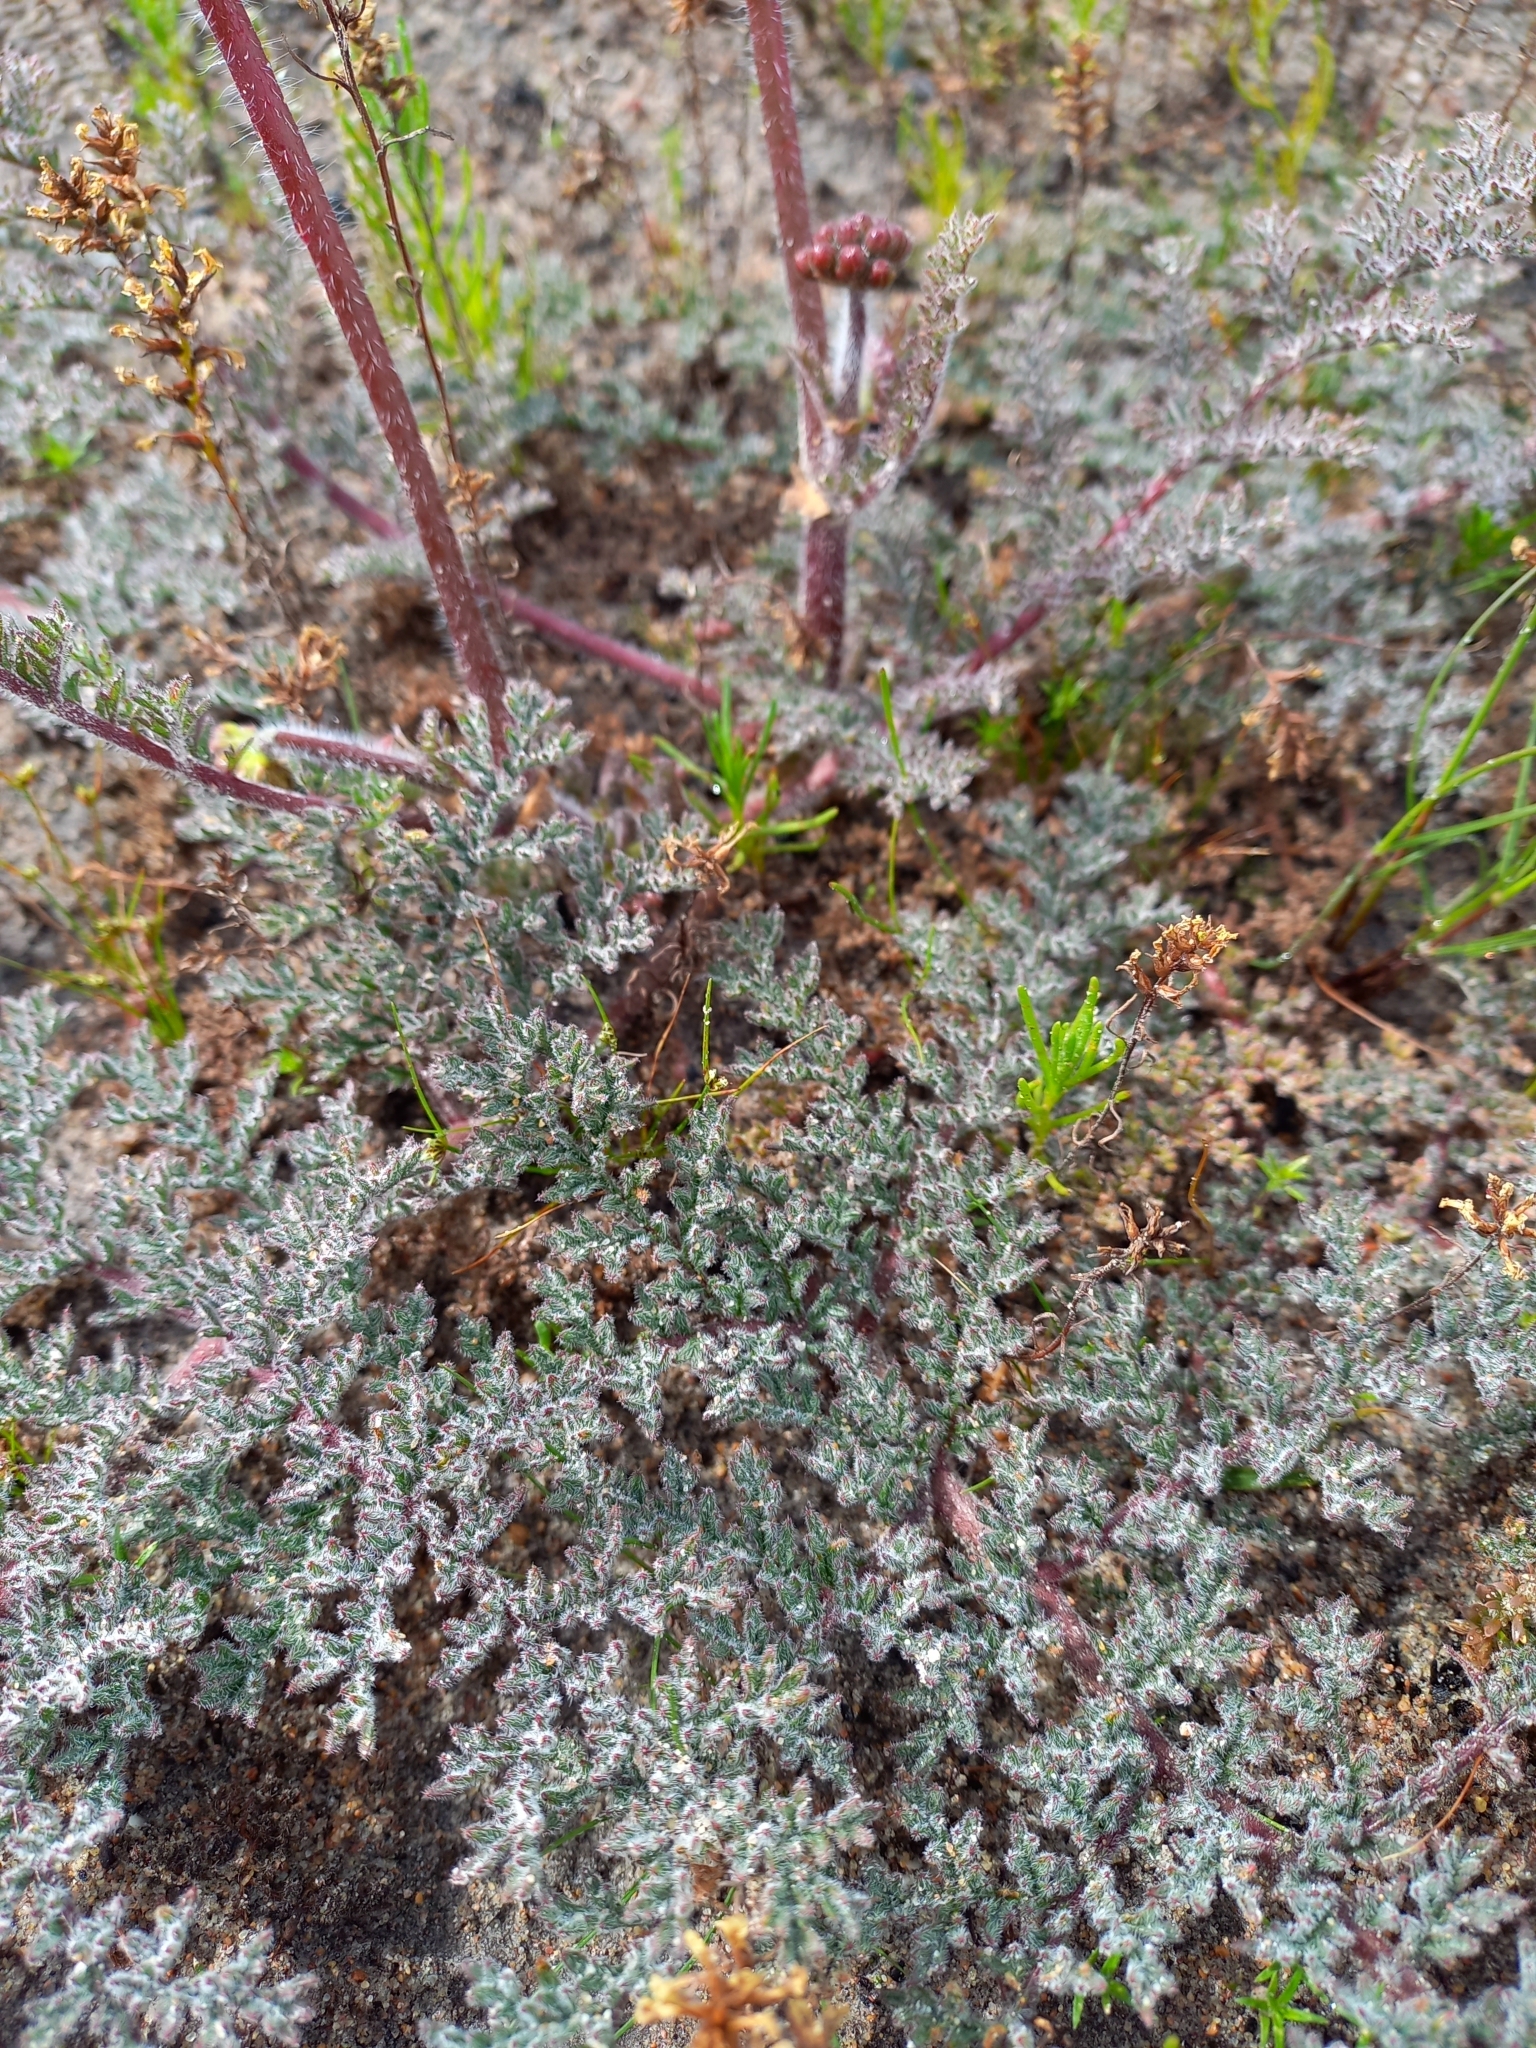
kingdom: Plantae
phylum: Tracheophyta
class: Magnoliopsida
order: Geraniales
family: Geraniaceae
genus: Pelargonium
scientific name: Pelargonium triste
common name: Night-scent pelargonium
